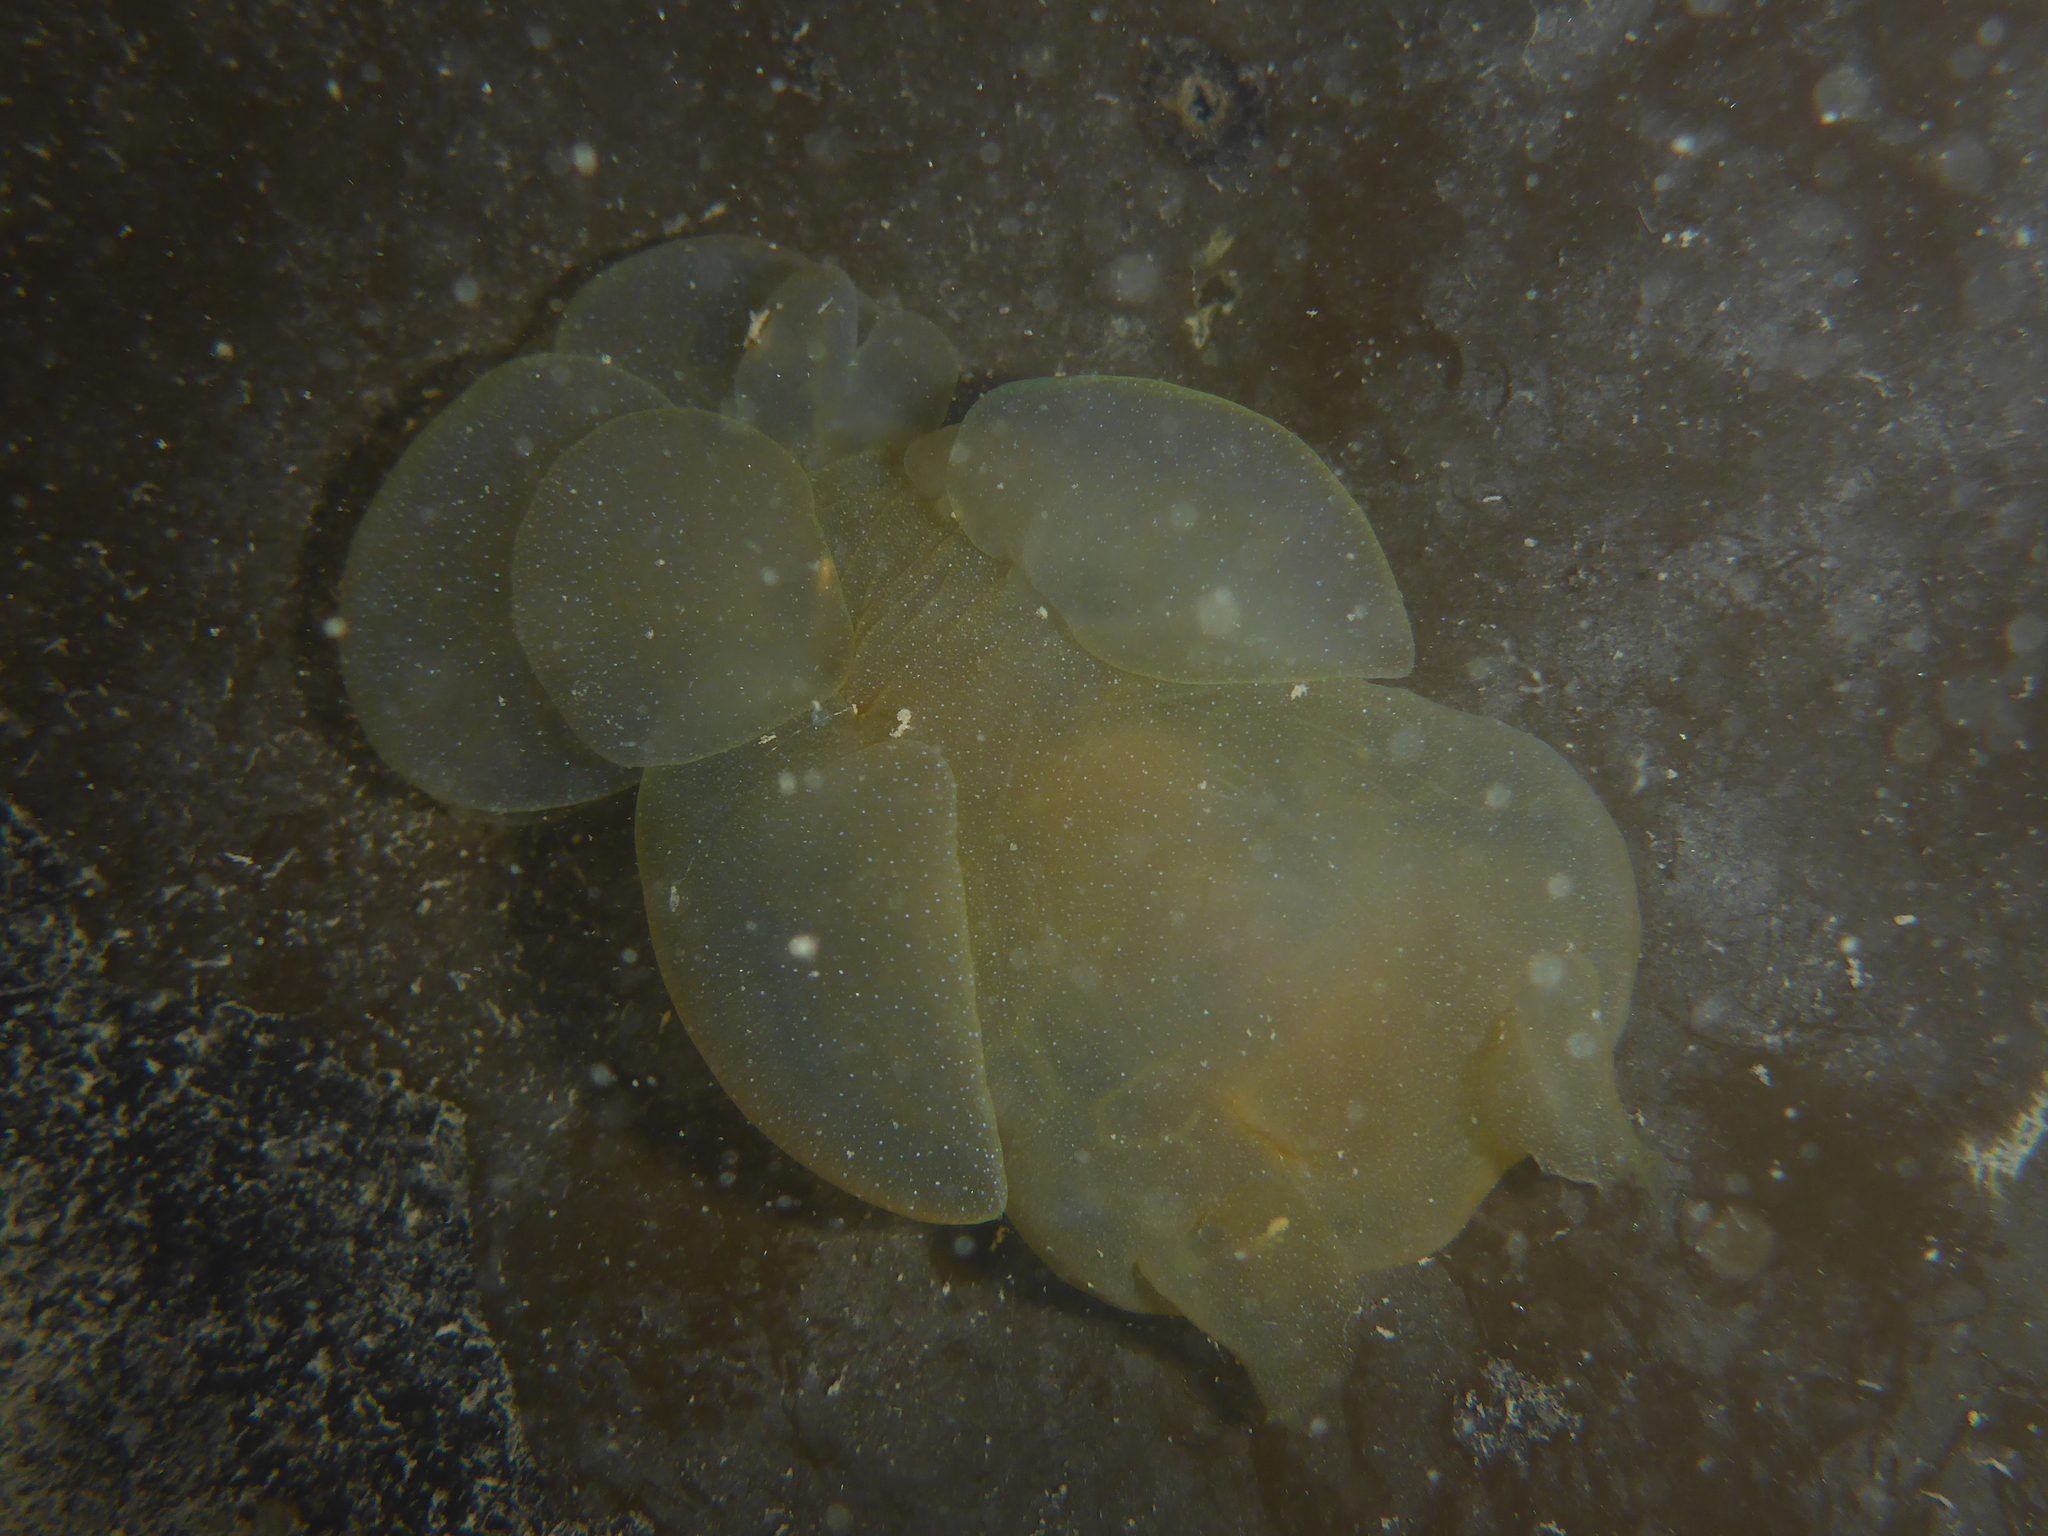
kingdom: Animalia
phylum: Mollusca
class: Gastropoda
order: Nudibranchia
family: Tethydidae
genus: Melibe
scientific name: Melibe leonina
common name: Lion nudibranch
